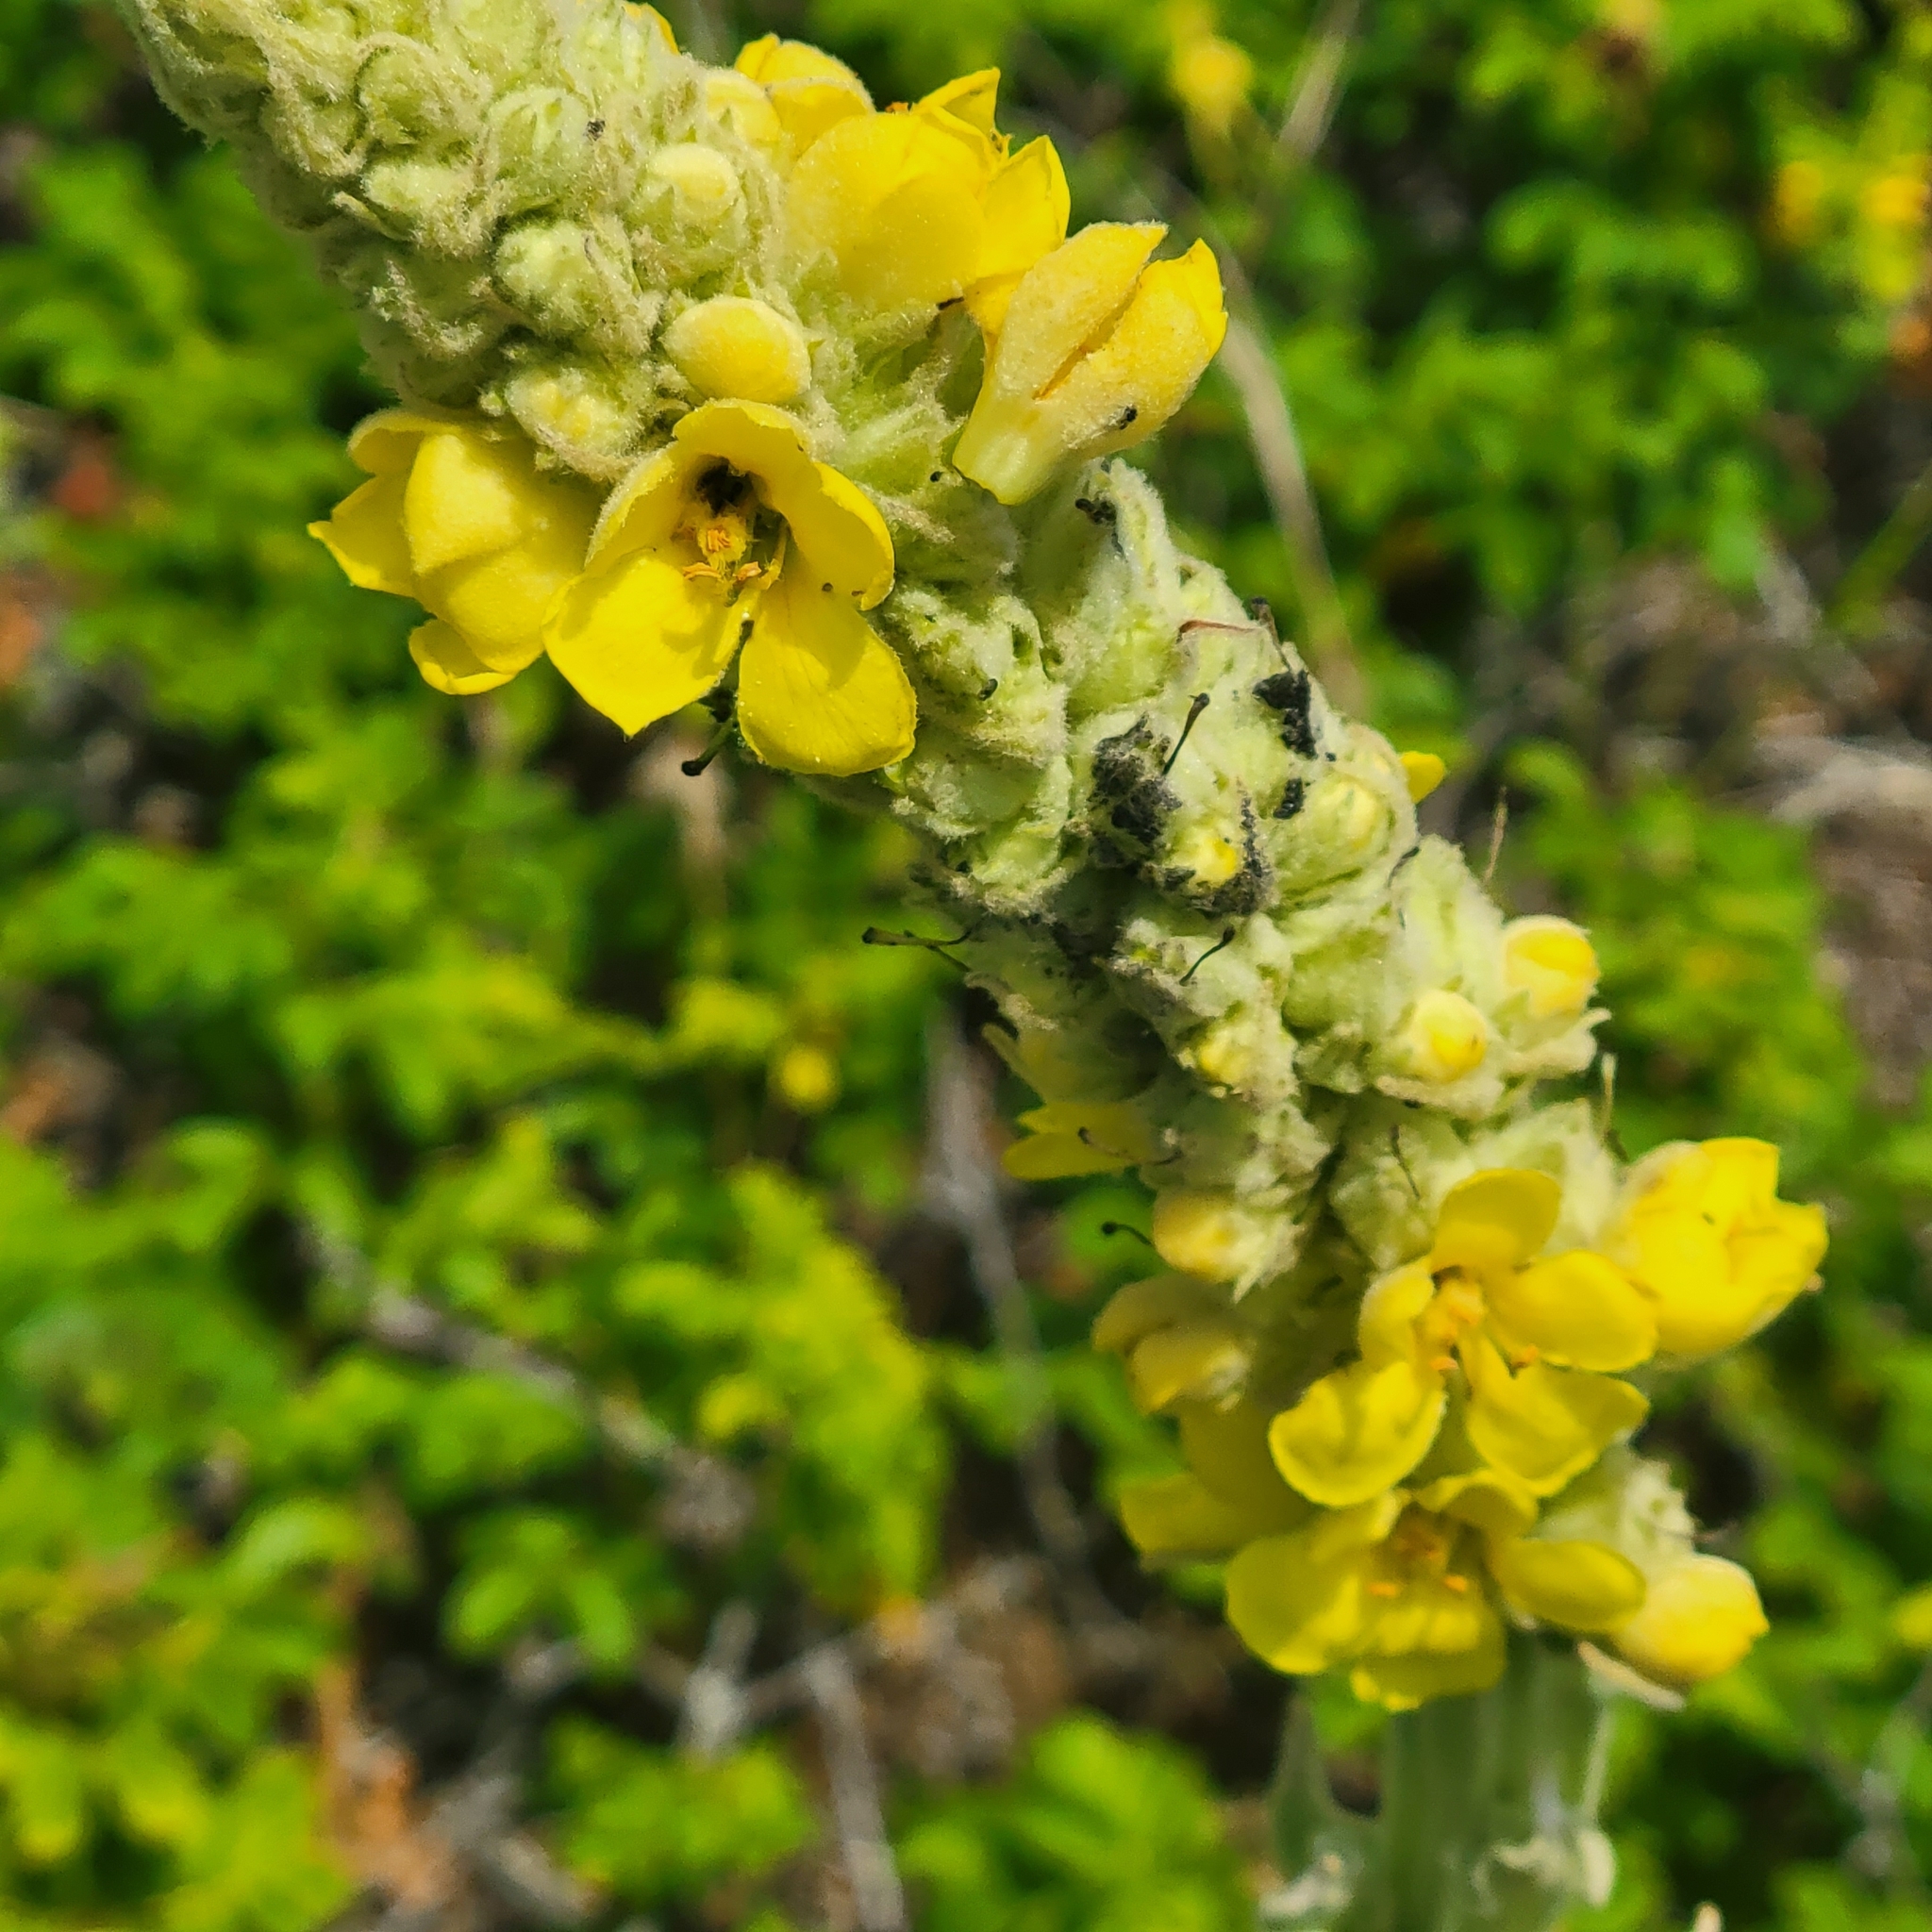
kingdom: Plantae
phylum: Tracheophyta
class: Magnoliopsida
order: Lamiales
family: Scrophulariaceae
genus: Verbascum
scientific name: Verbascum thapsus
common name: Common mullein
